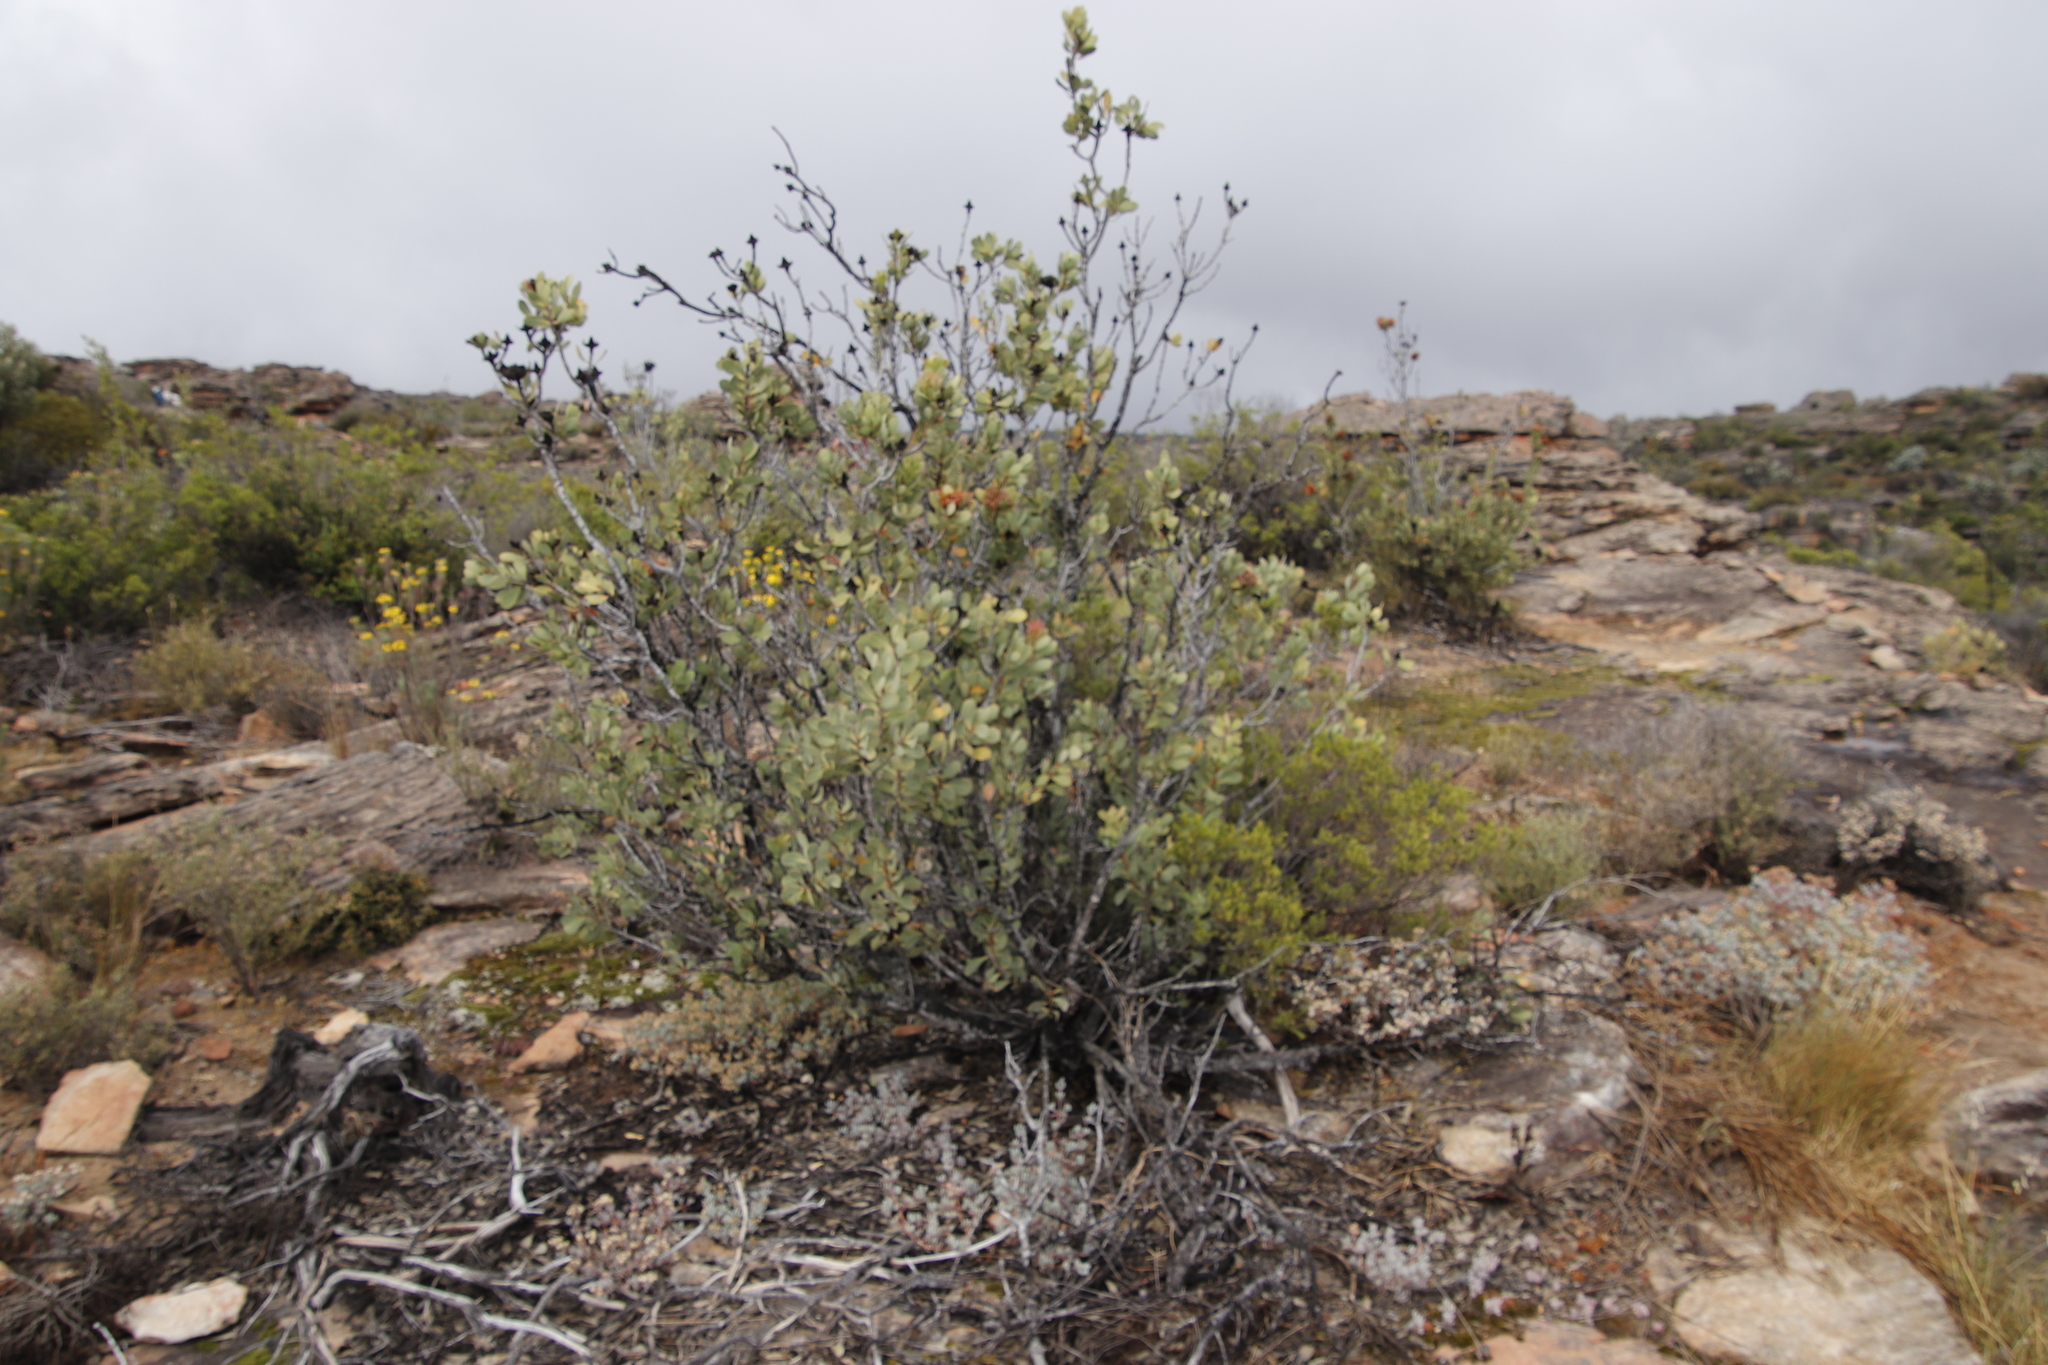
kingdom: Plantae
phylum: Tracheophyta
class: Magnoliopsida
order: Proteales
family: Proteaceae
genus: Protea
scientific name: Protea glabra
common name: Chestnut sugarbush
